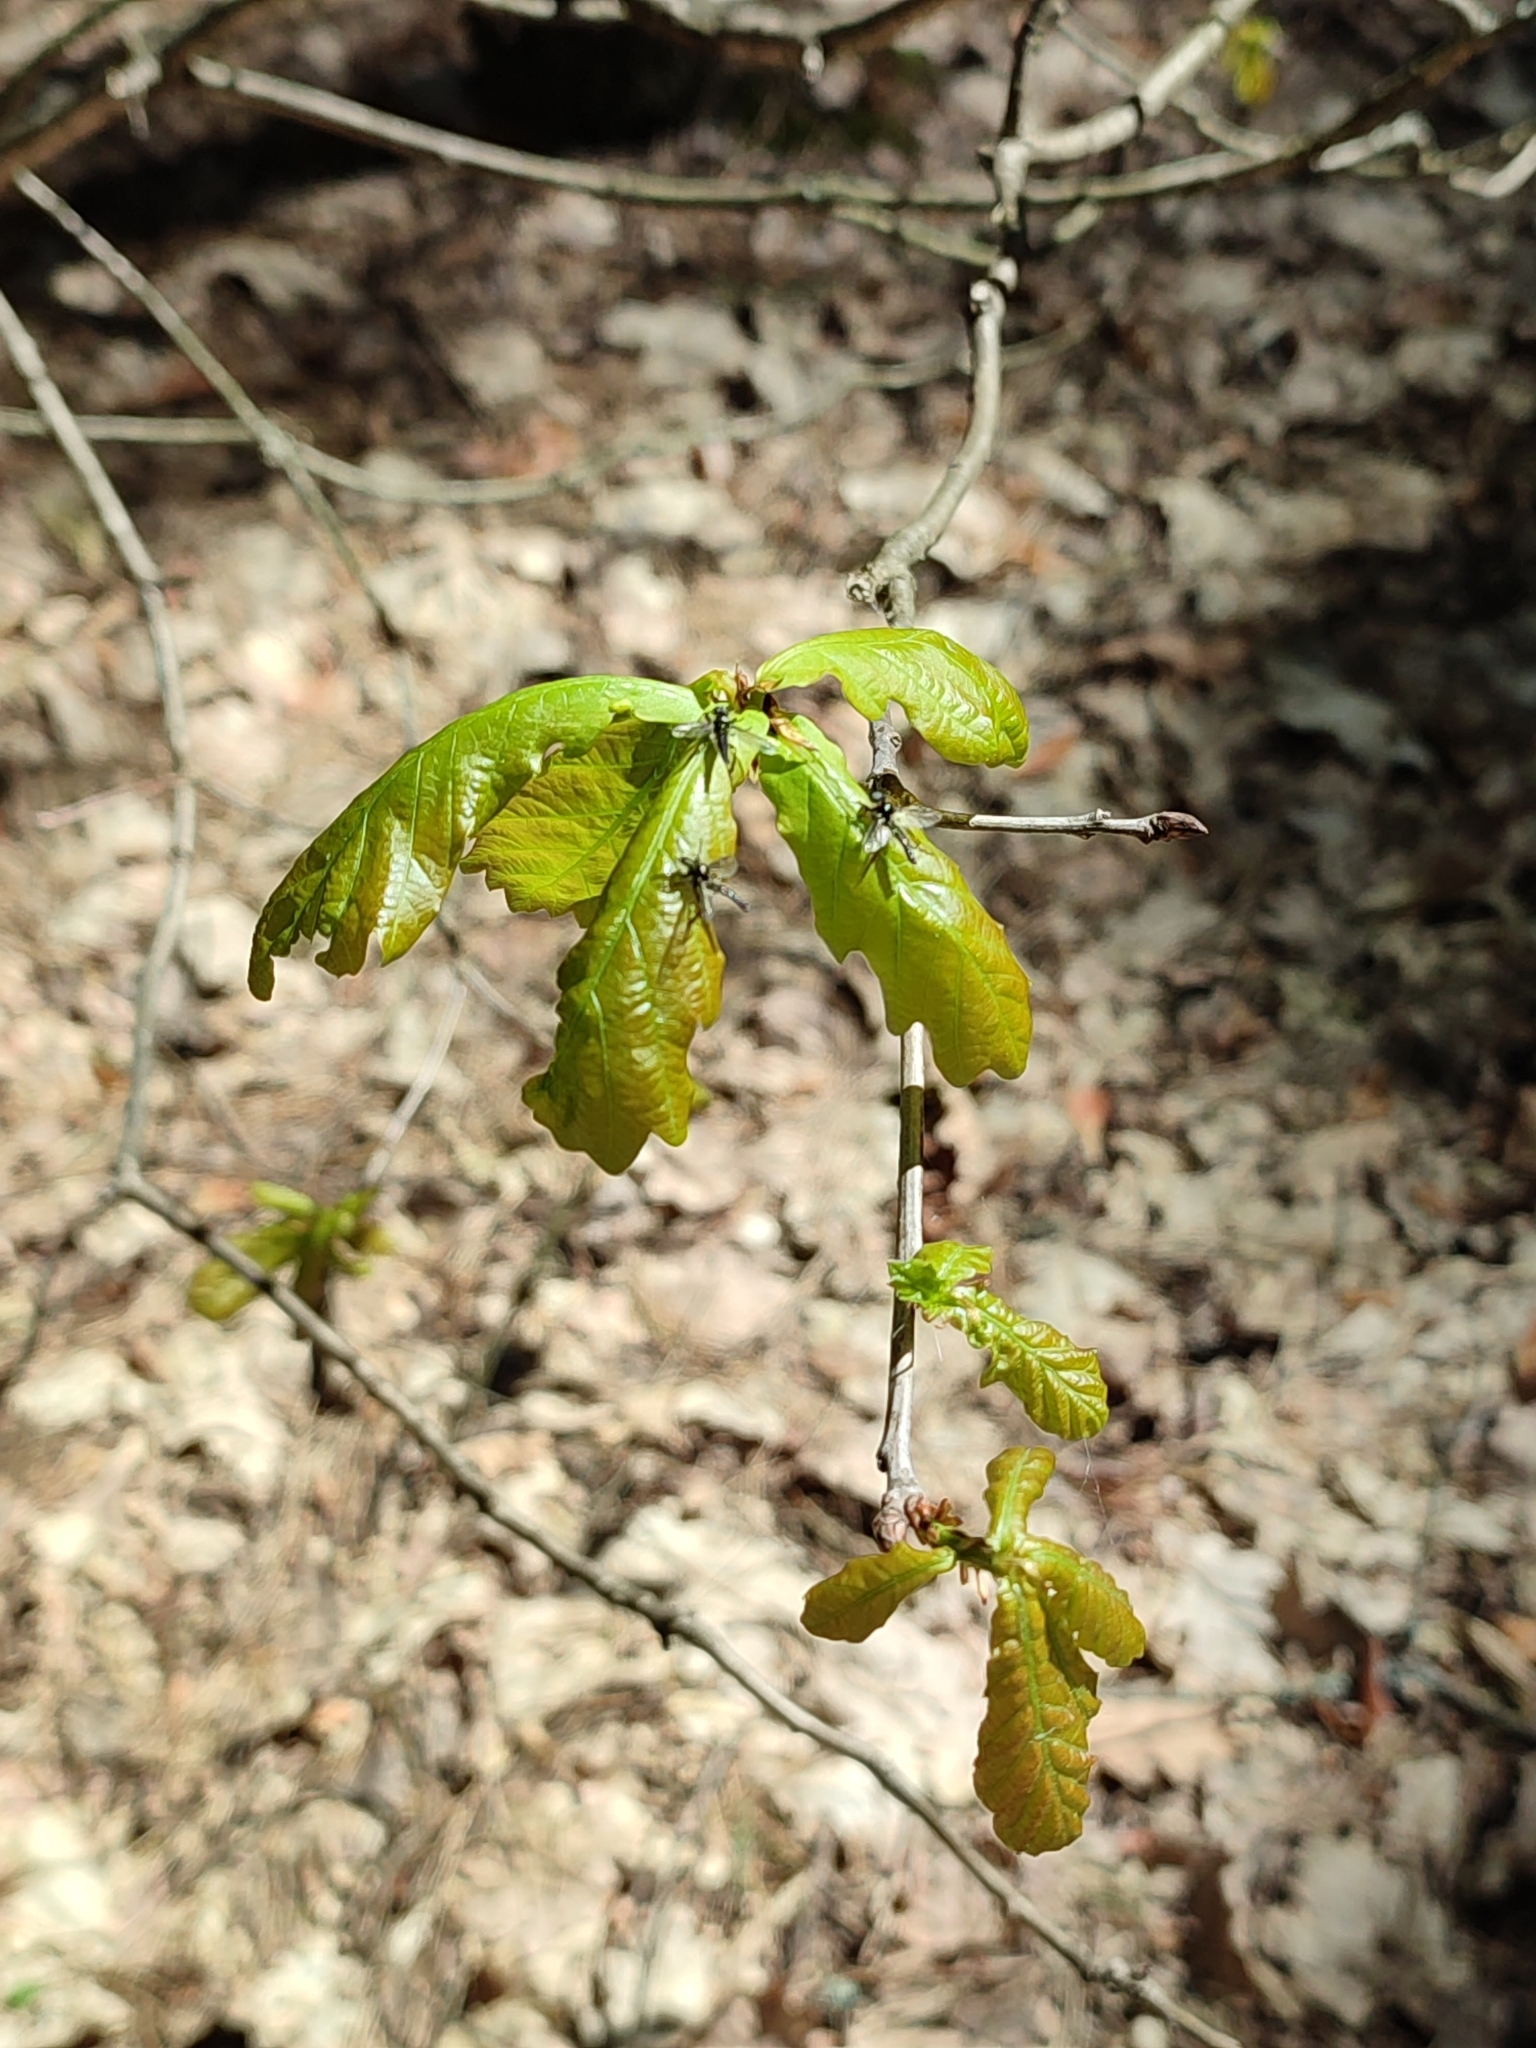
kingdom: Plantae
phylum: Tracheophyta
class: Magnoliopsida
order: Fagales
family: Fagaceae
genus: Quercus
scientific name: Quercus robur
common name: Pedunculate oak
